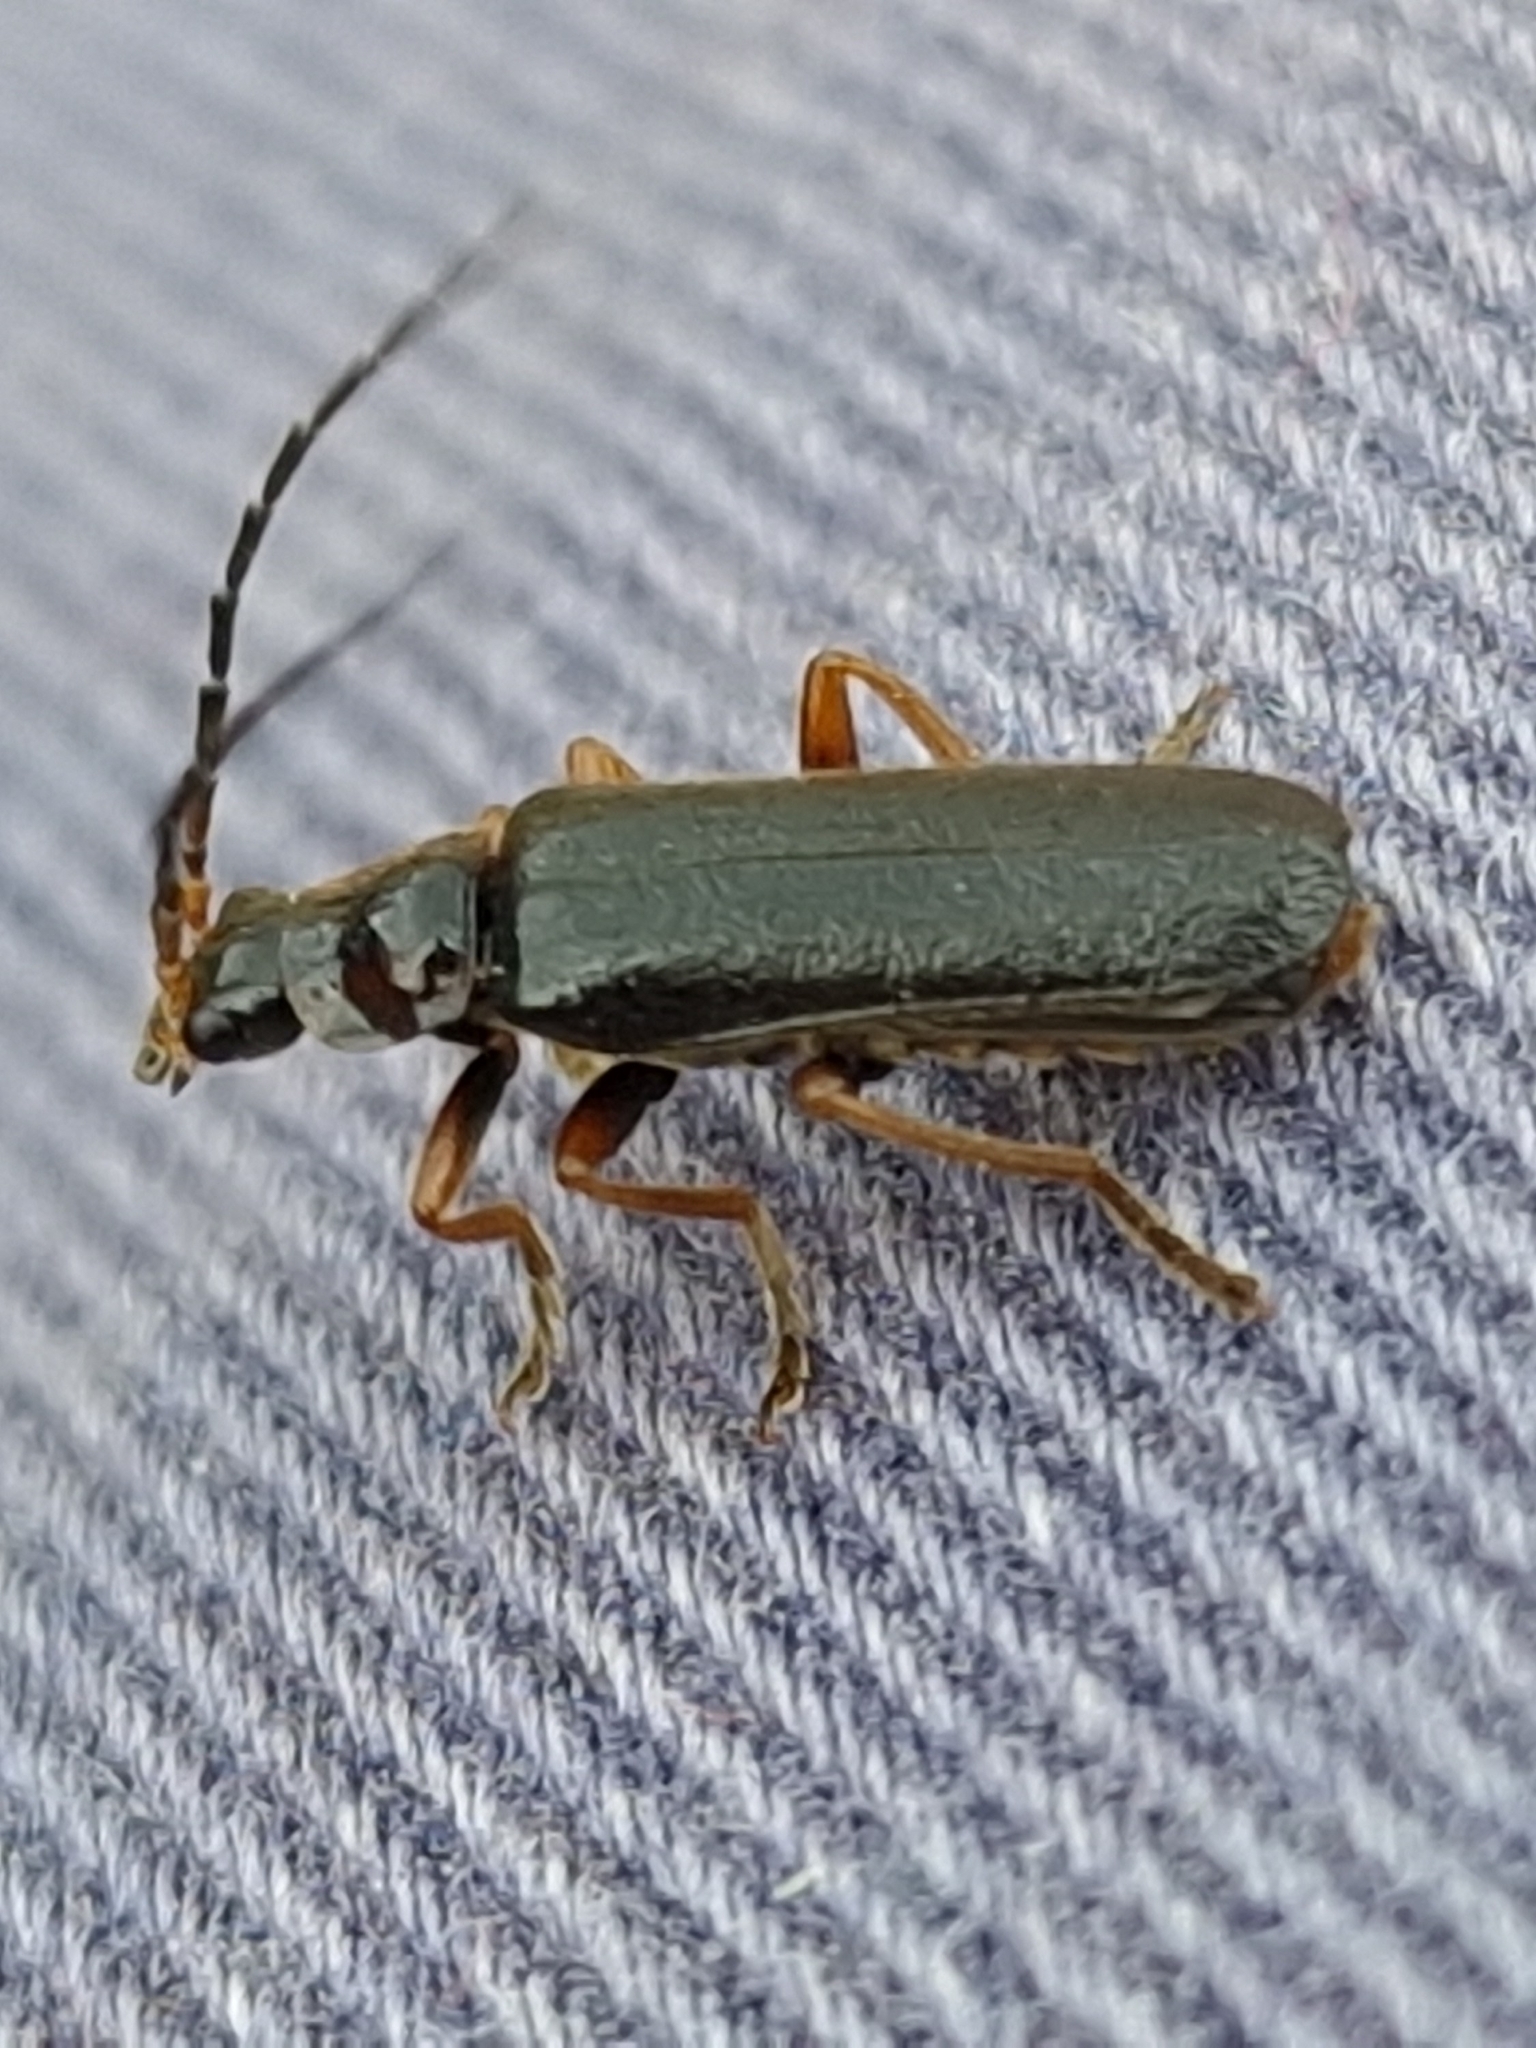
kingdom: Animalia
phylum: Arthropoda
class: Insecta
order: Coleoptera
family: Cantharidae
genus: Cantharis
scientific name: Cantharis flavilabris
